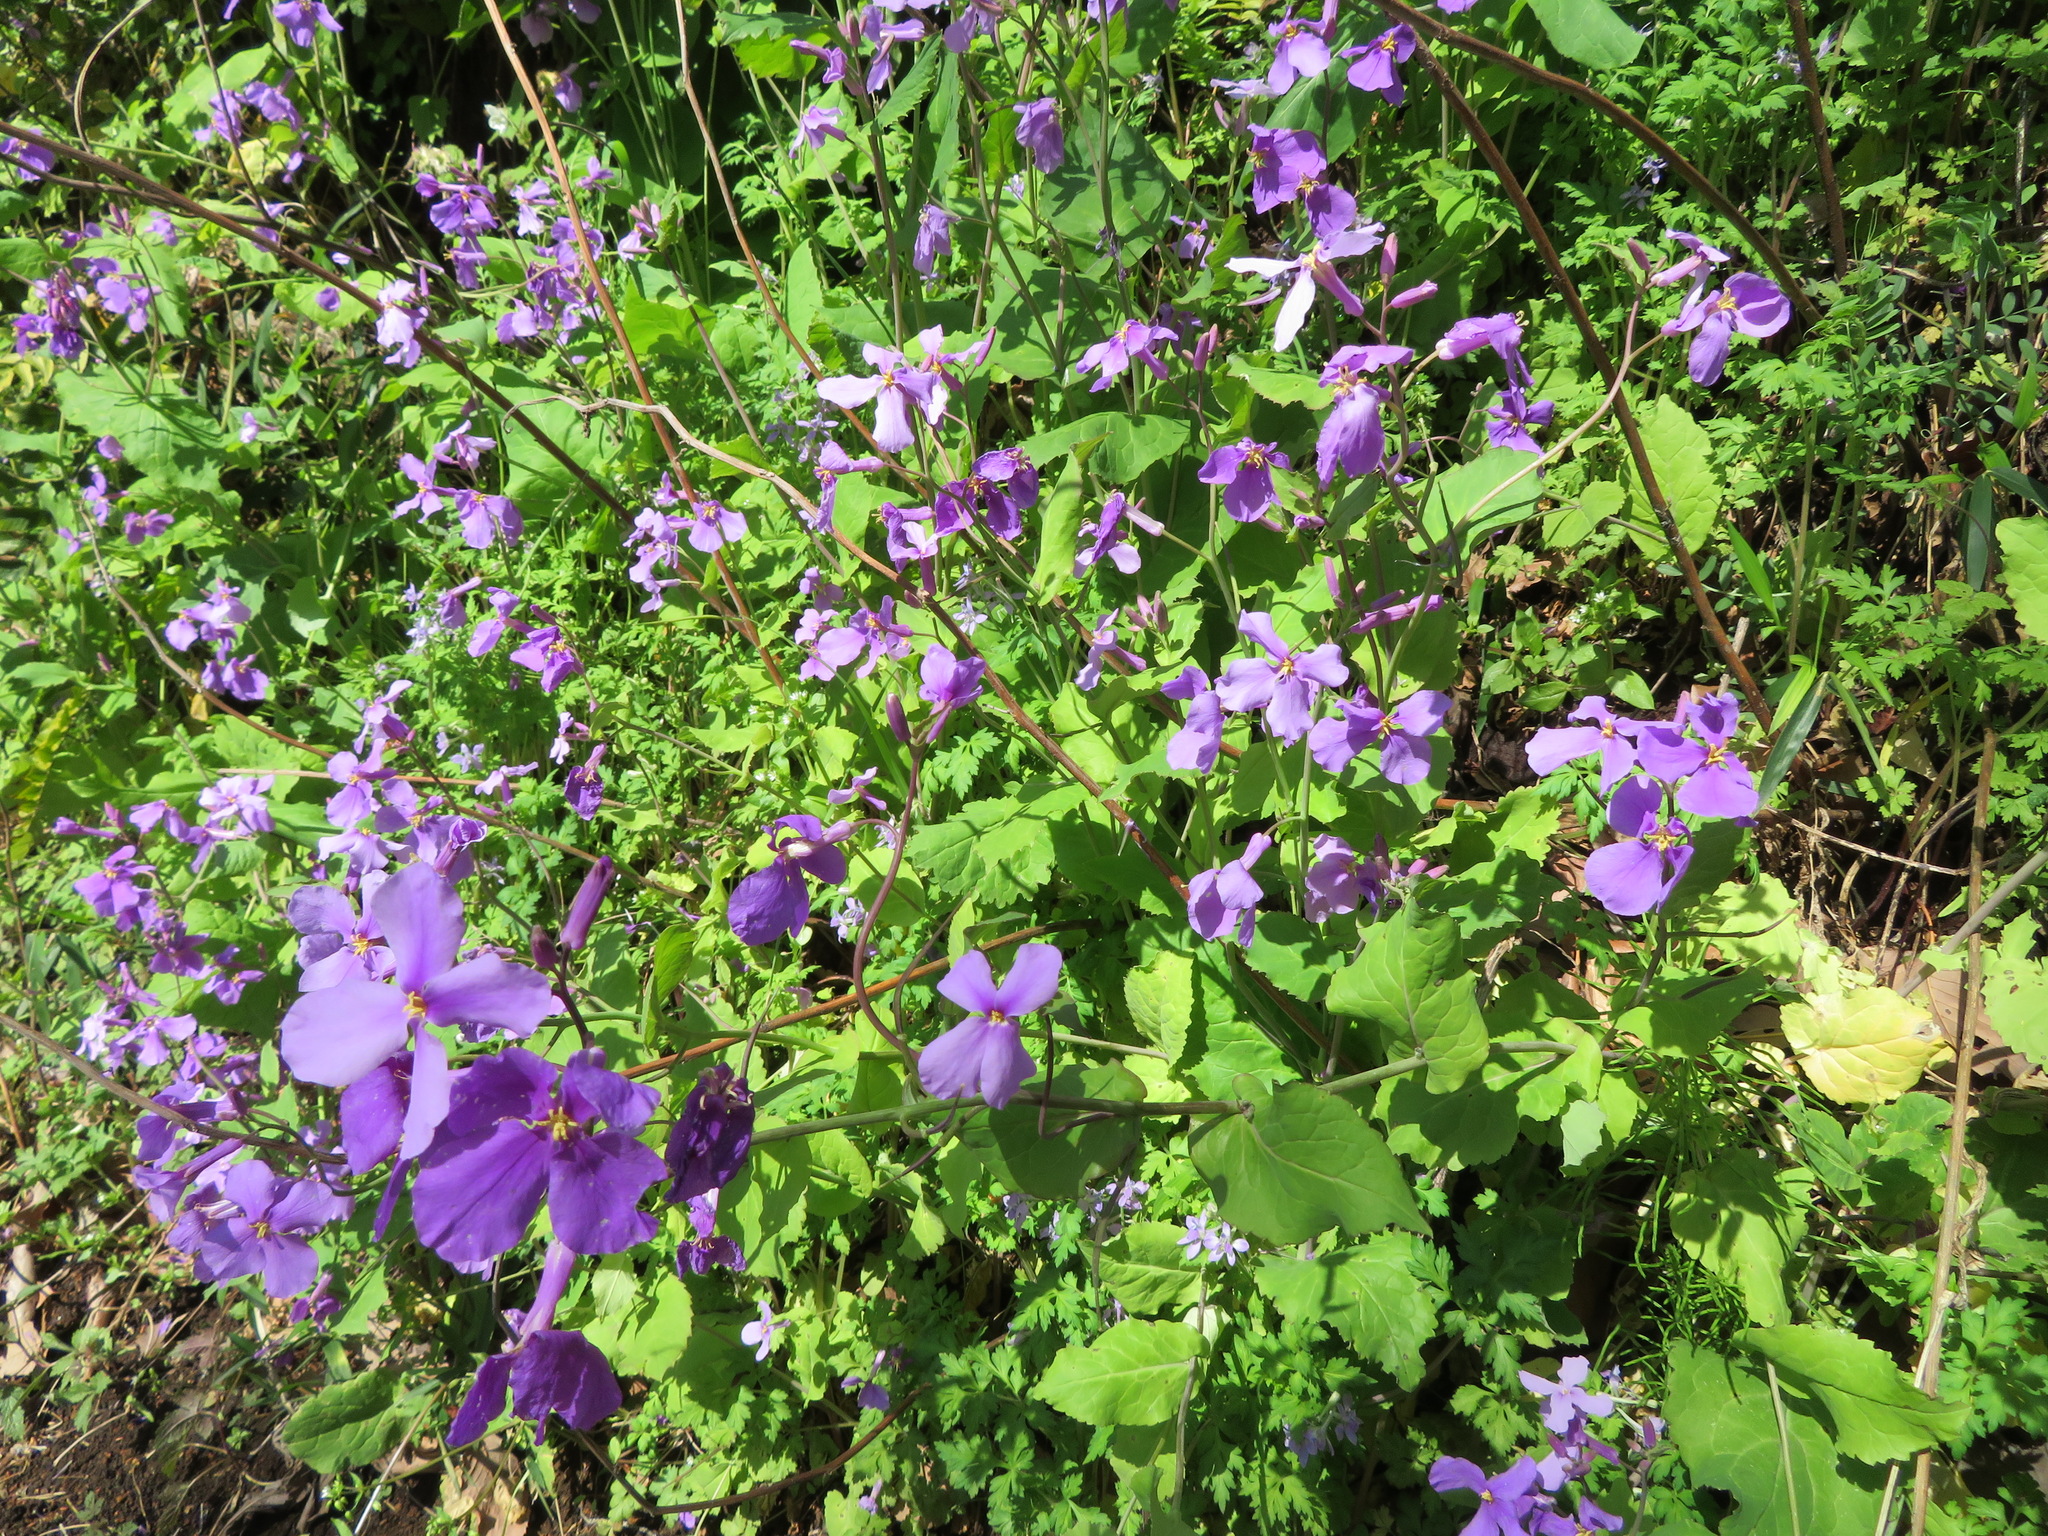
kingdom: Plantae
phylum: Tracheophyta
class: Magnoliopsida
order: Brassicales
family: Brassicaceae
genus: Orychophragmus
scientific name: Orychophragmus violaceus
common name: Mustard
